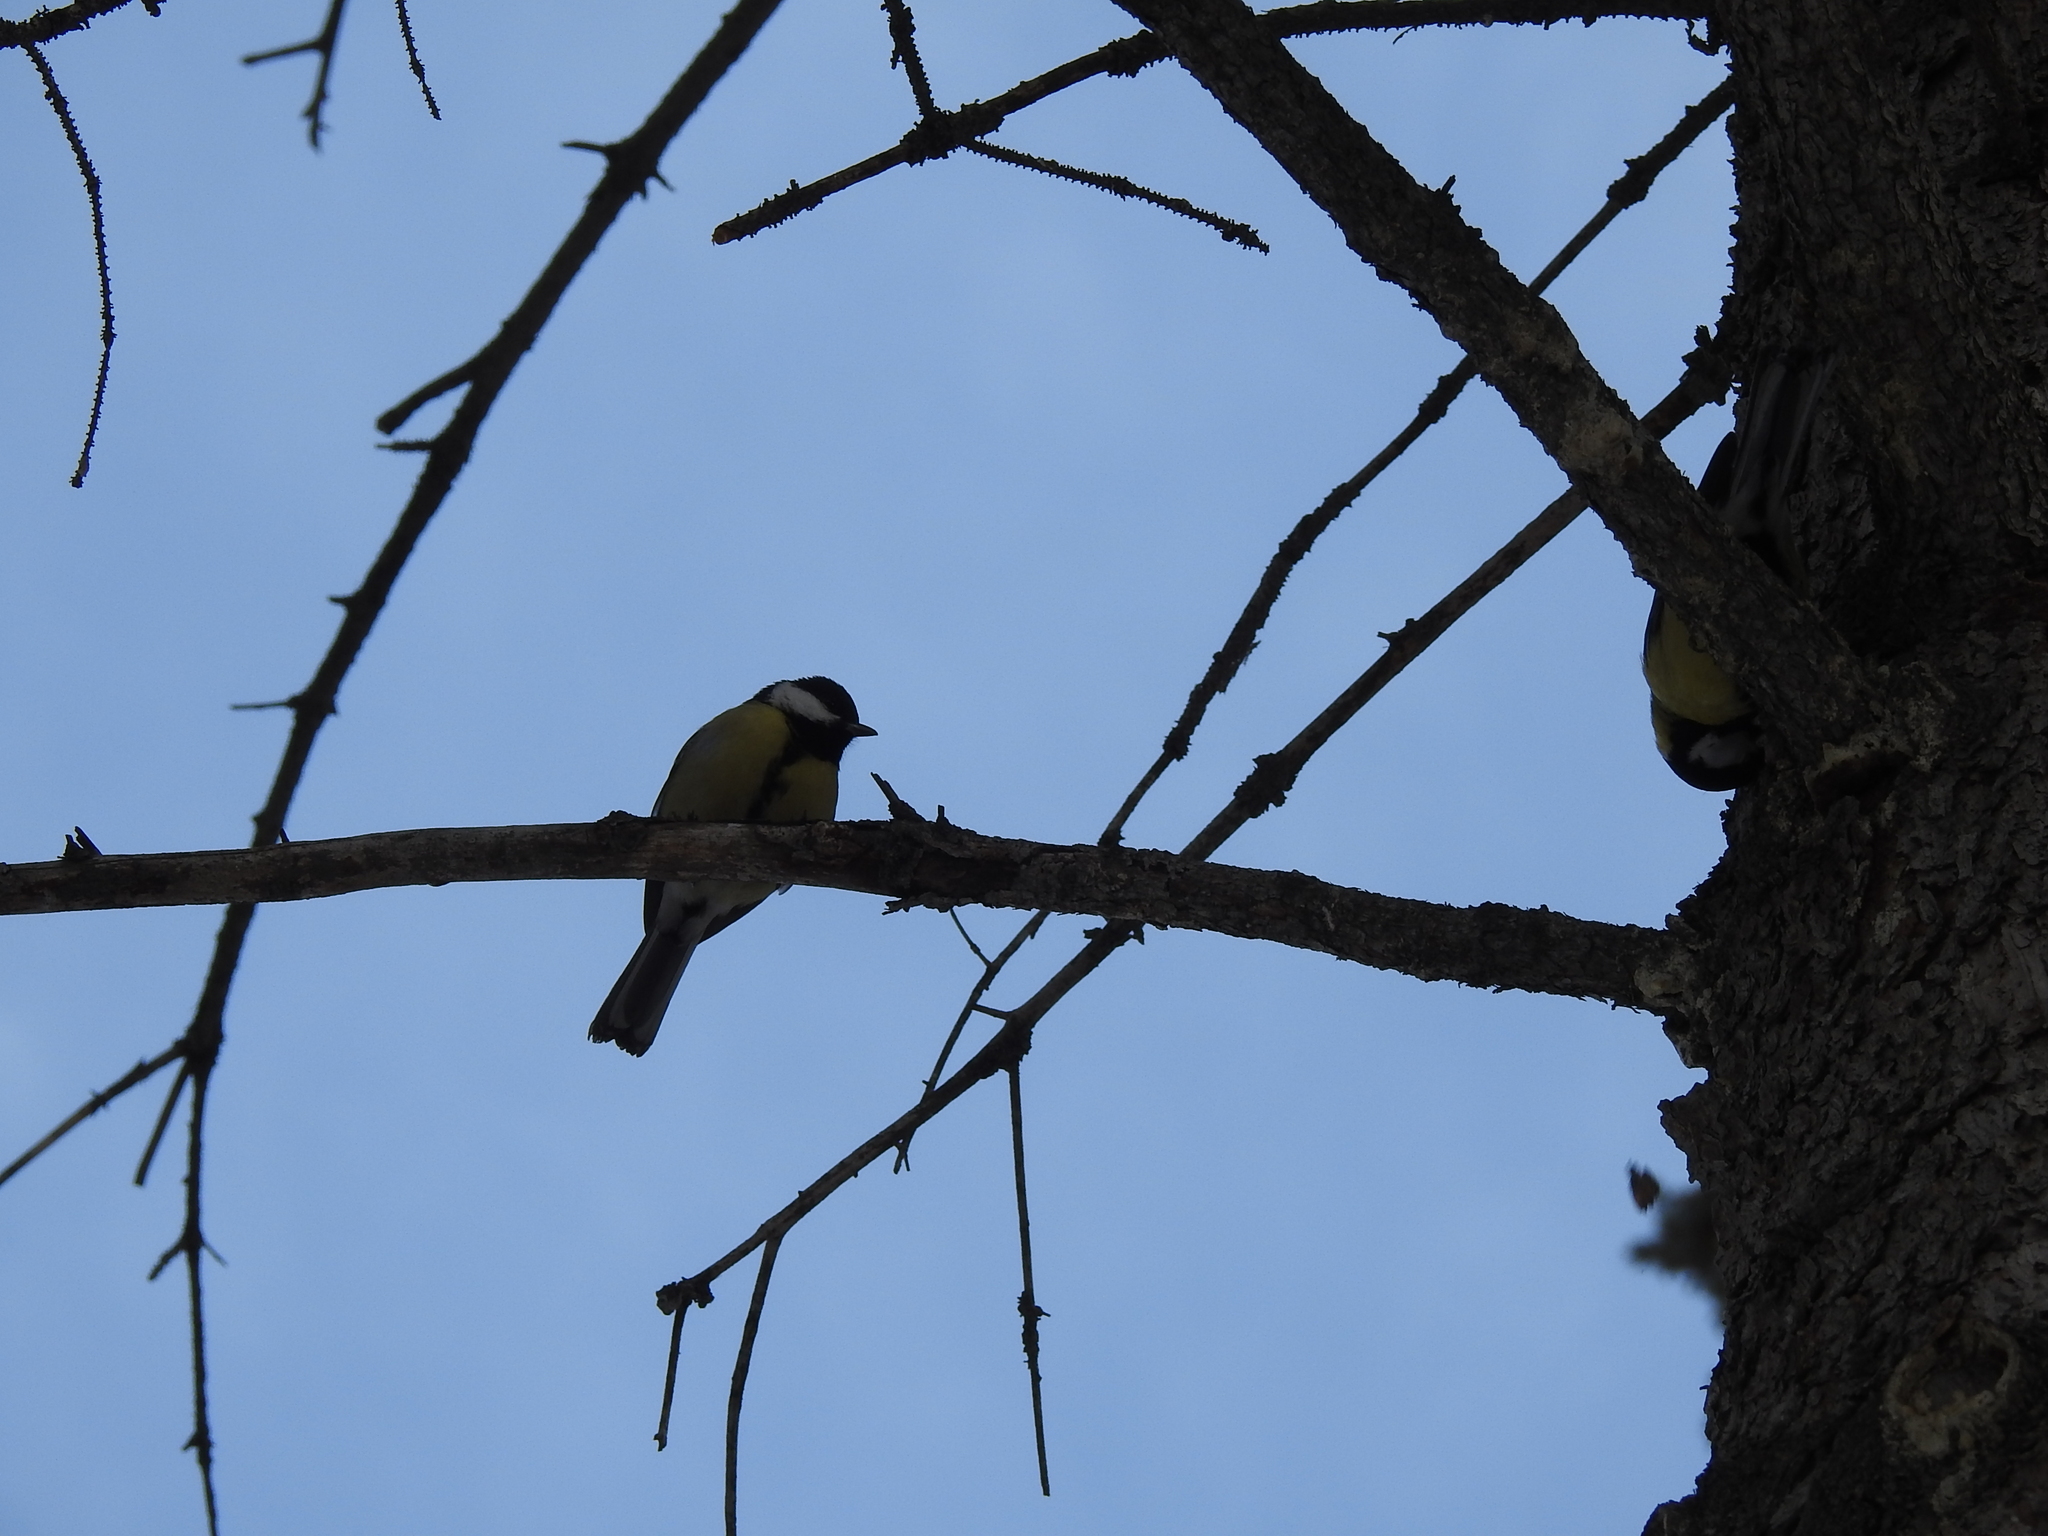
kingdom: Animalia
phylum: Chordata
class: Aves
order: Passeriformes
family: Paridae
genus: Parus
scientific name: Parus major
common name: Great tit
